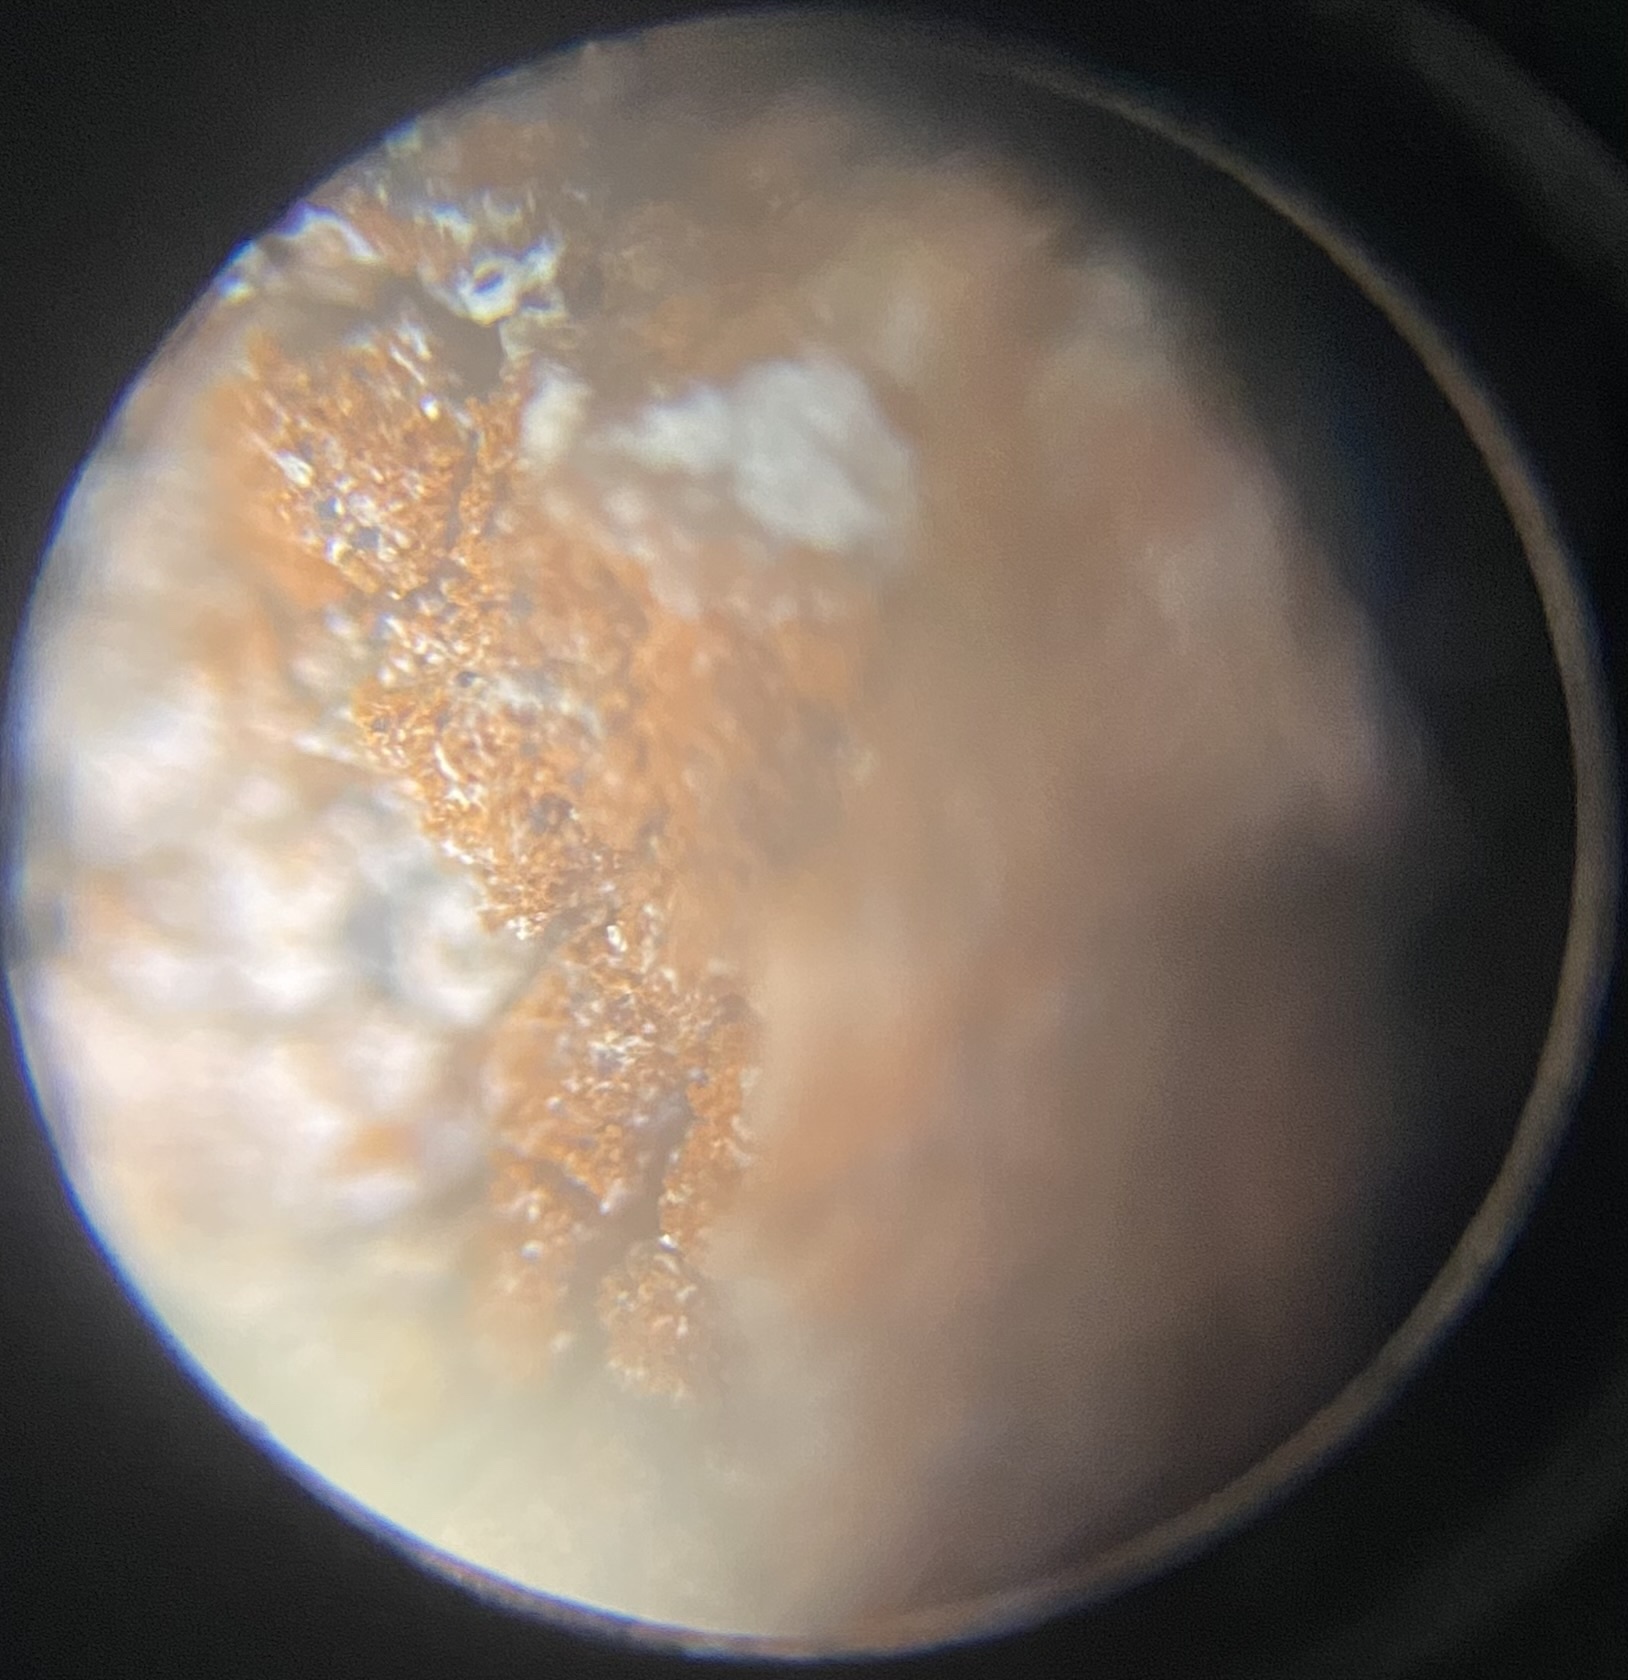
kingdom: Plantae
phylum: Chlorophyta
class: Ulvophyceae
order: Trentepohliales
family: Trentepohliaceae
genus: Trentepohlia
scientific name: Trentepohlia umbrina
